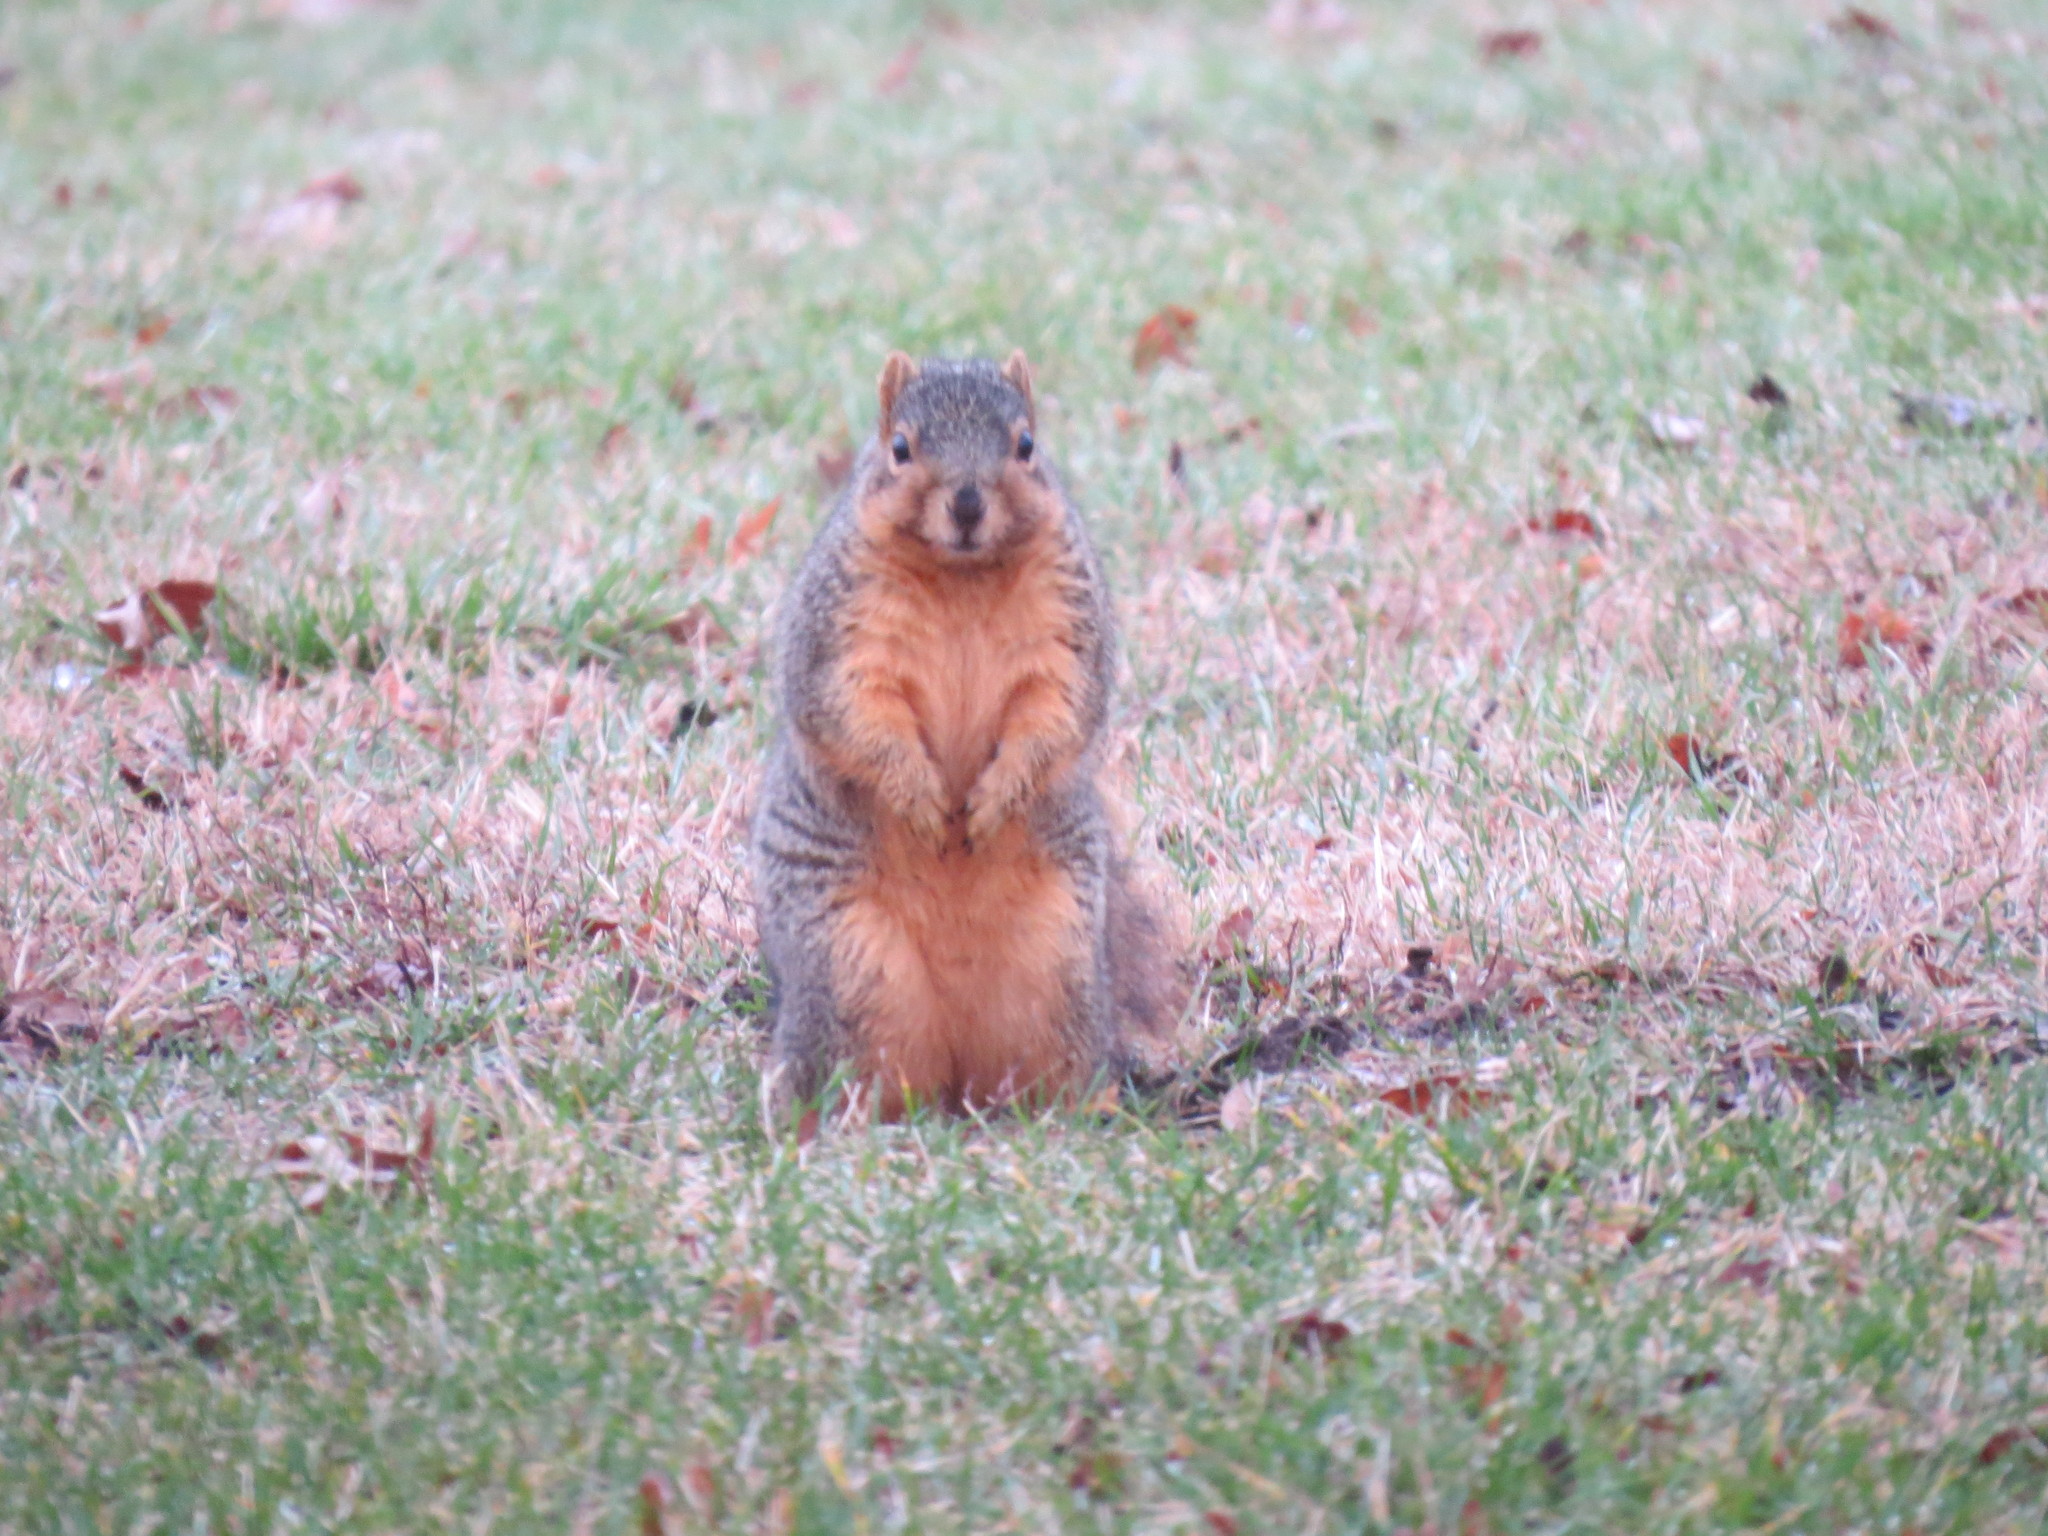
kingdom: Animalia
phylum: Chordata
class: Mammalia
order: Rodentia
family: Sciuridae
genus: Sciurus
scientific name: Sciurus niger
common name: Fox squirrel
